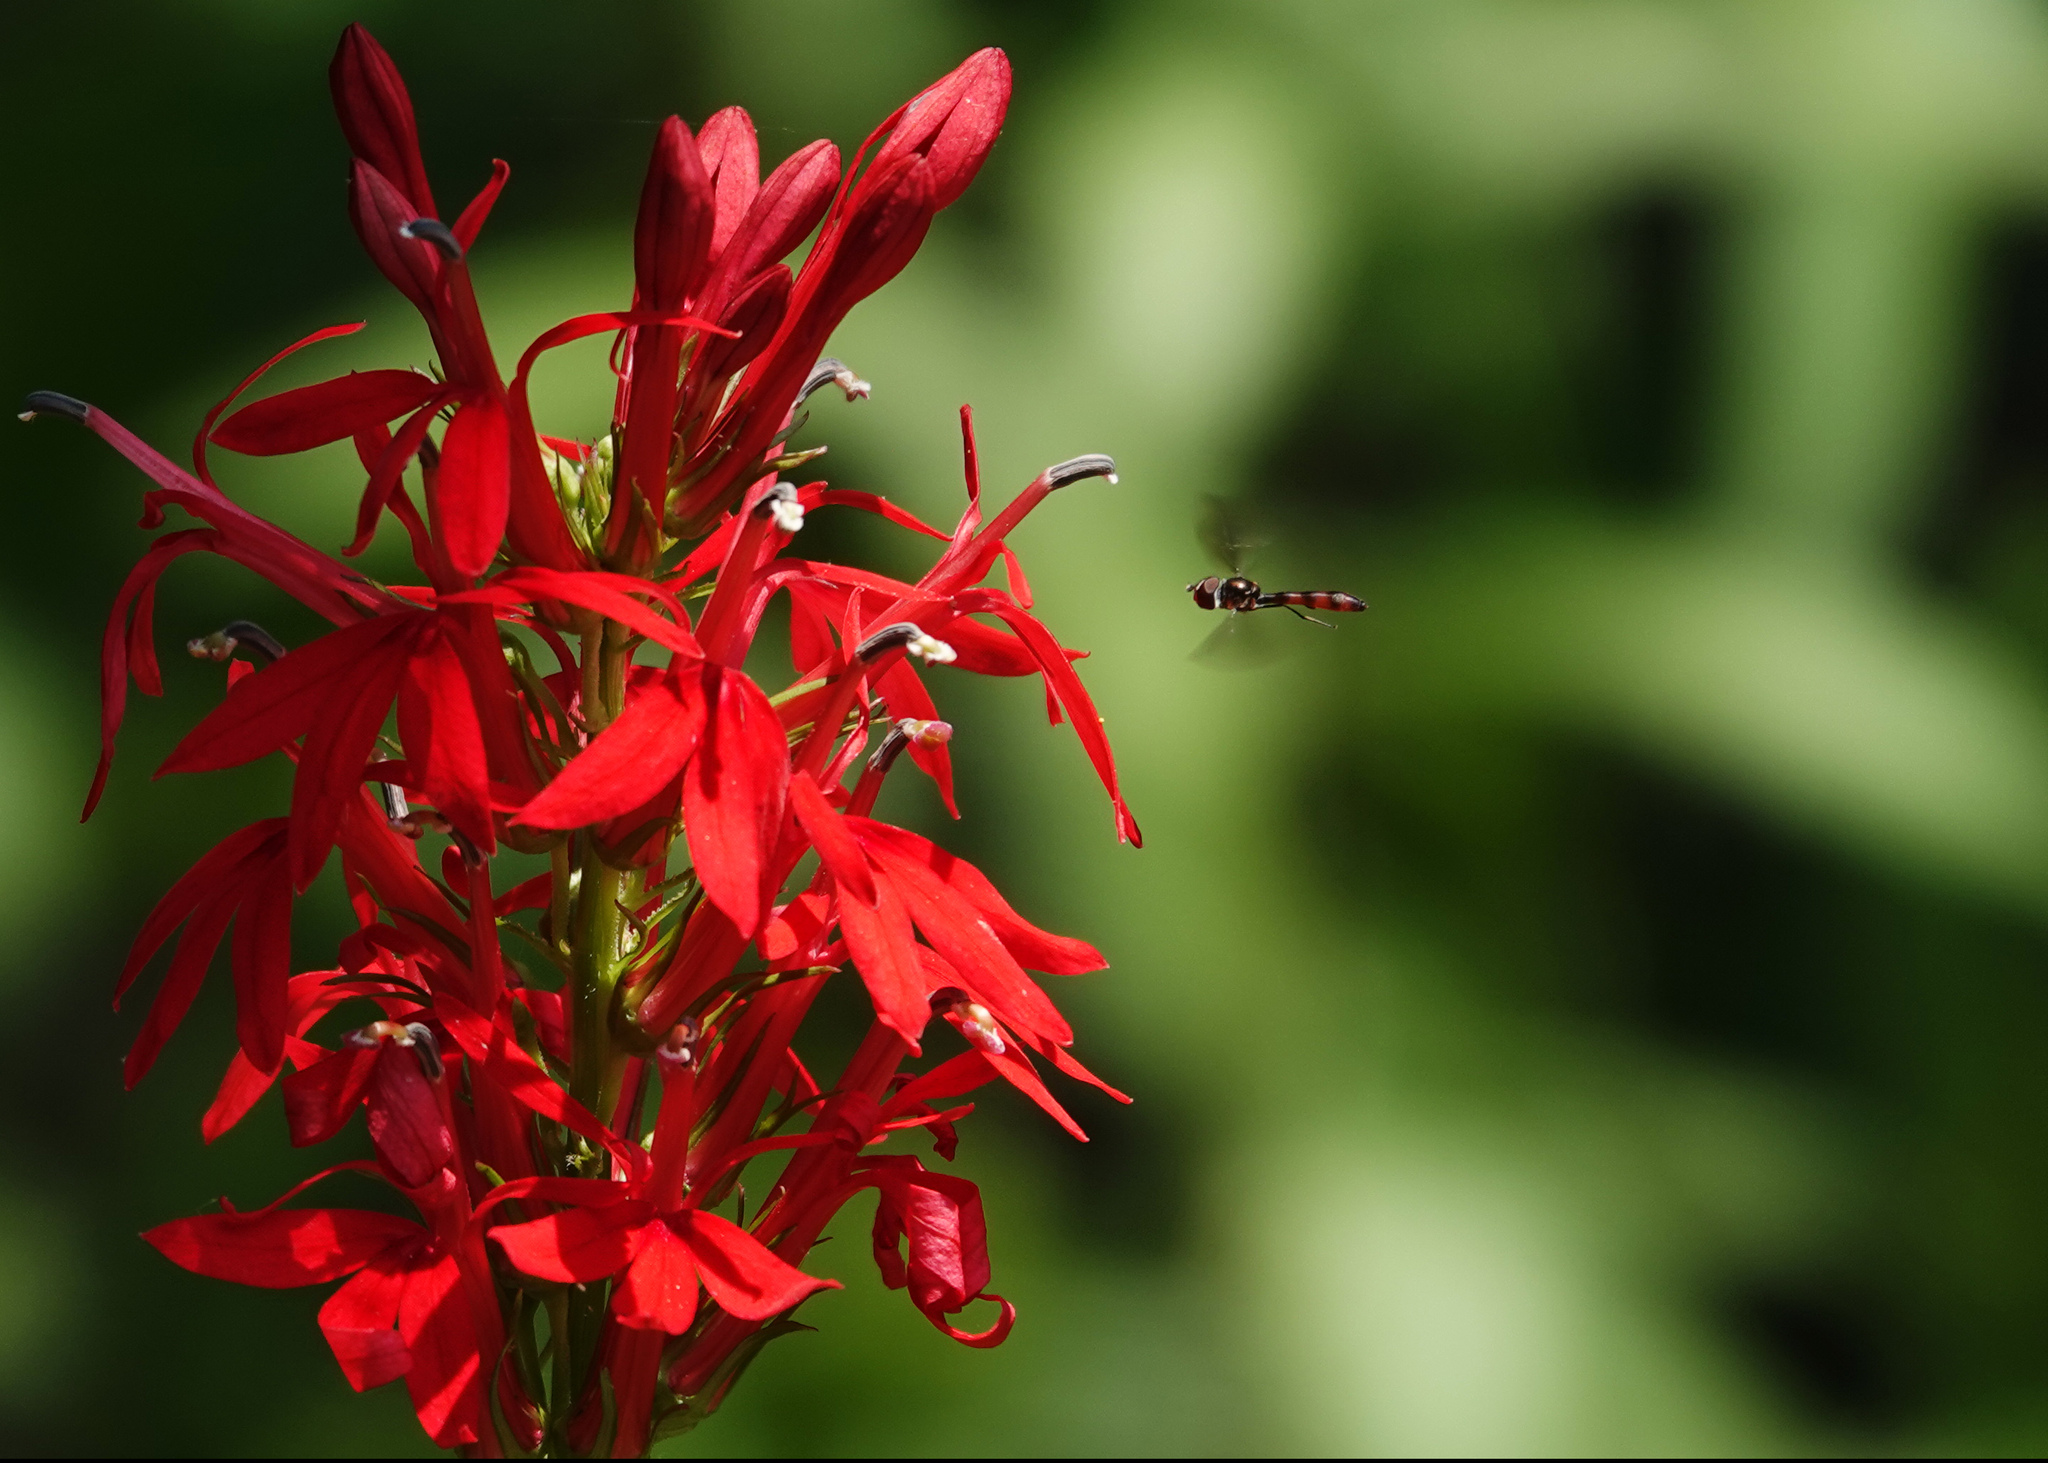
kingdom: Animalia
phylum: Arthropoda
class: Insecta
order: Diptera
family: Syrphidae
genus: Ocyptamus
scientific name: Ocyptamus fuscipennis
